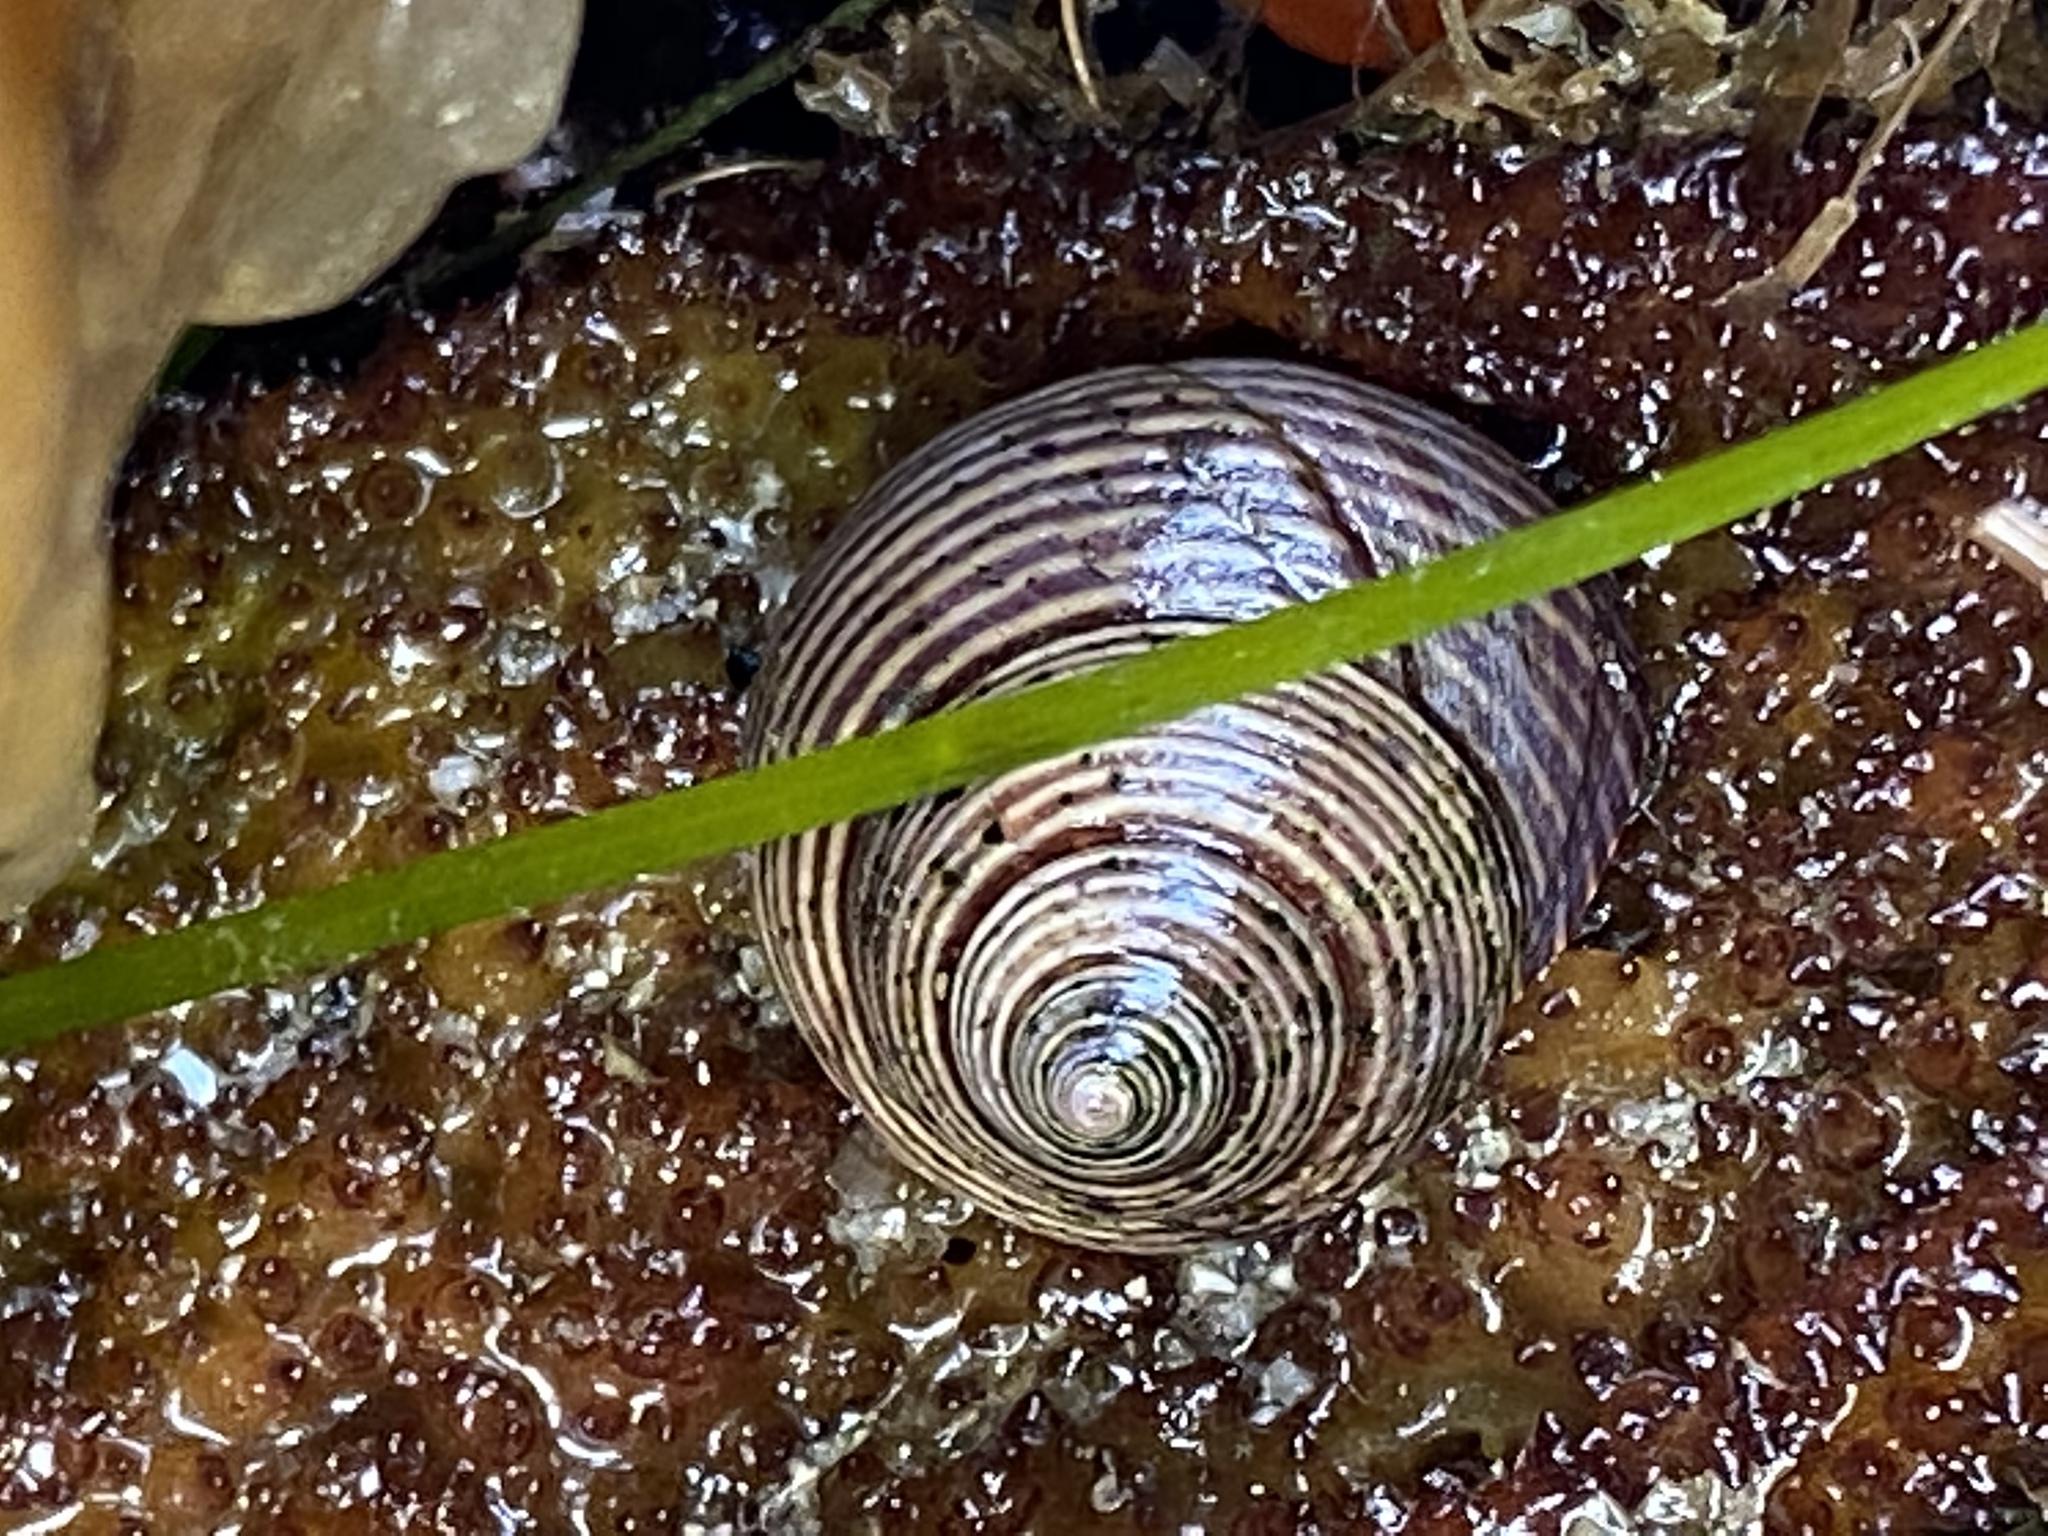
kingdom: Animalia
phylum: Mollusca
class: Gastropoda
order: Trochida
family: Calliostomatidae
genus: Calliostoma
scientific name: Calliostoma ligatum
